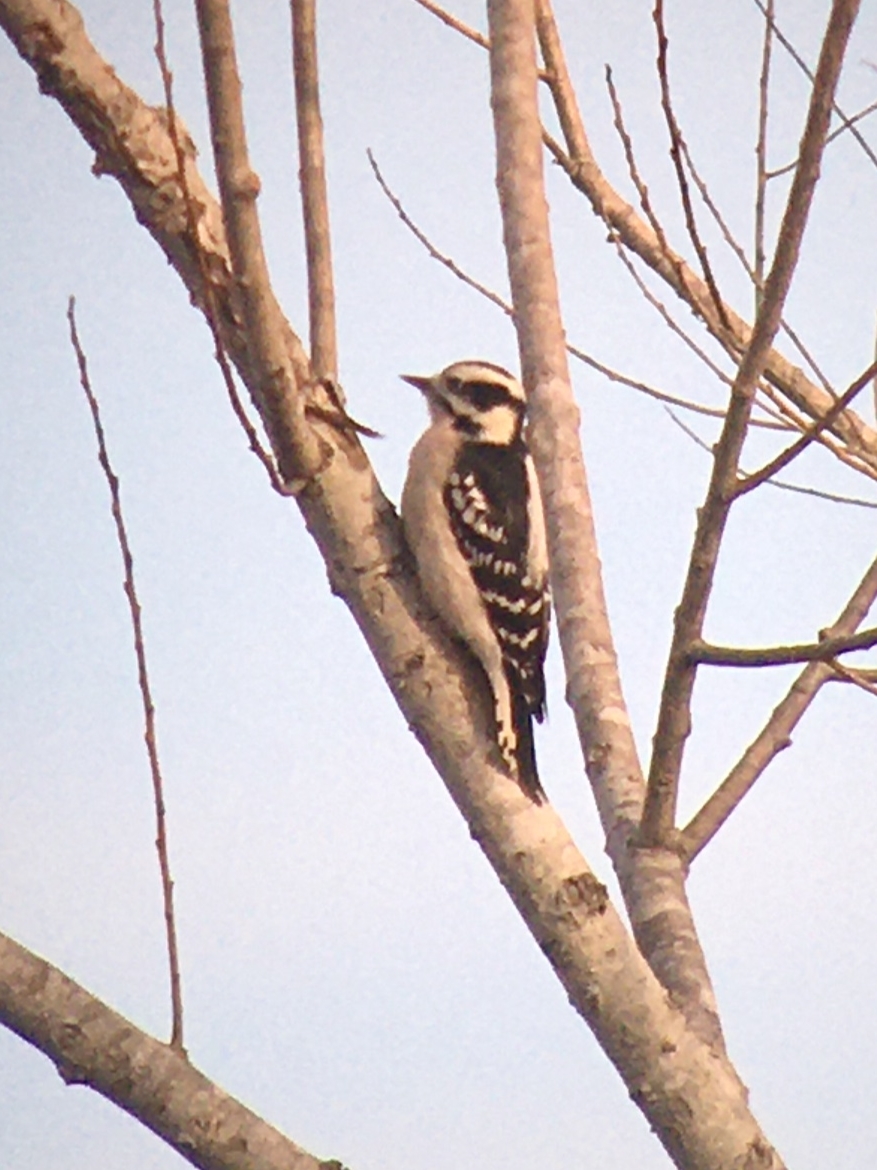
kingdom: Animalia
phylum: Chordata
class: Aves
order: Piciformes
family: Picidae
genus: Dryobates
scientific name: Dryobates pubescens
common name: Downy woodpecker
